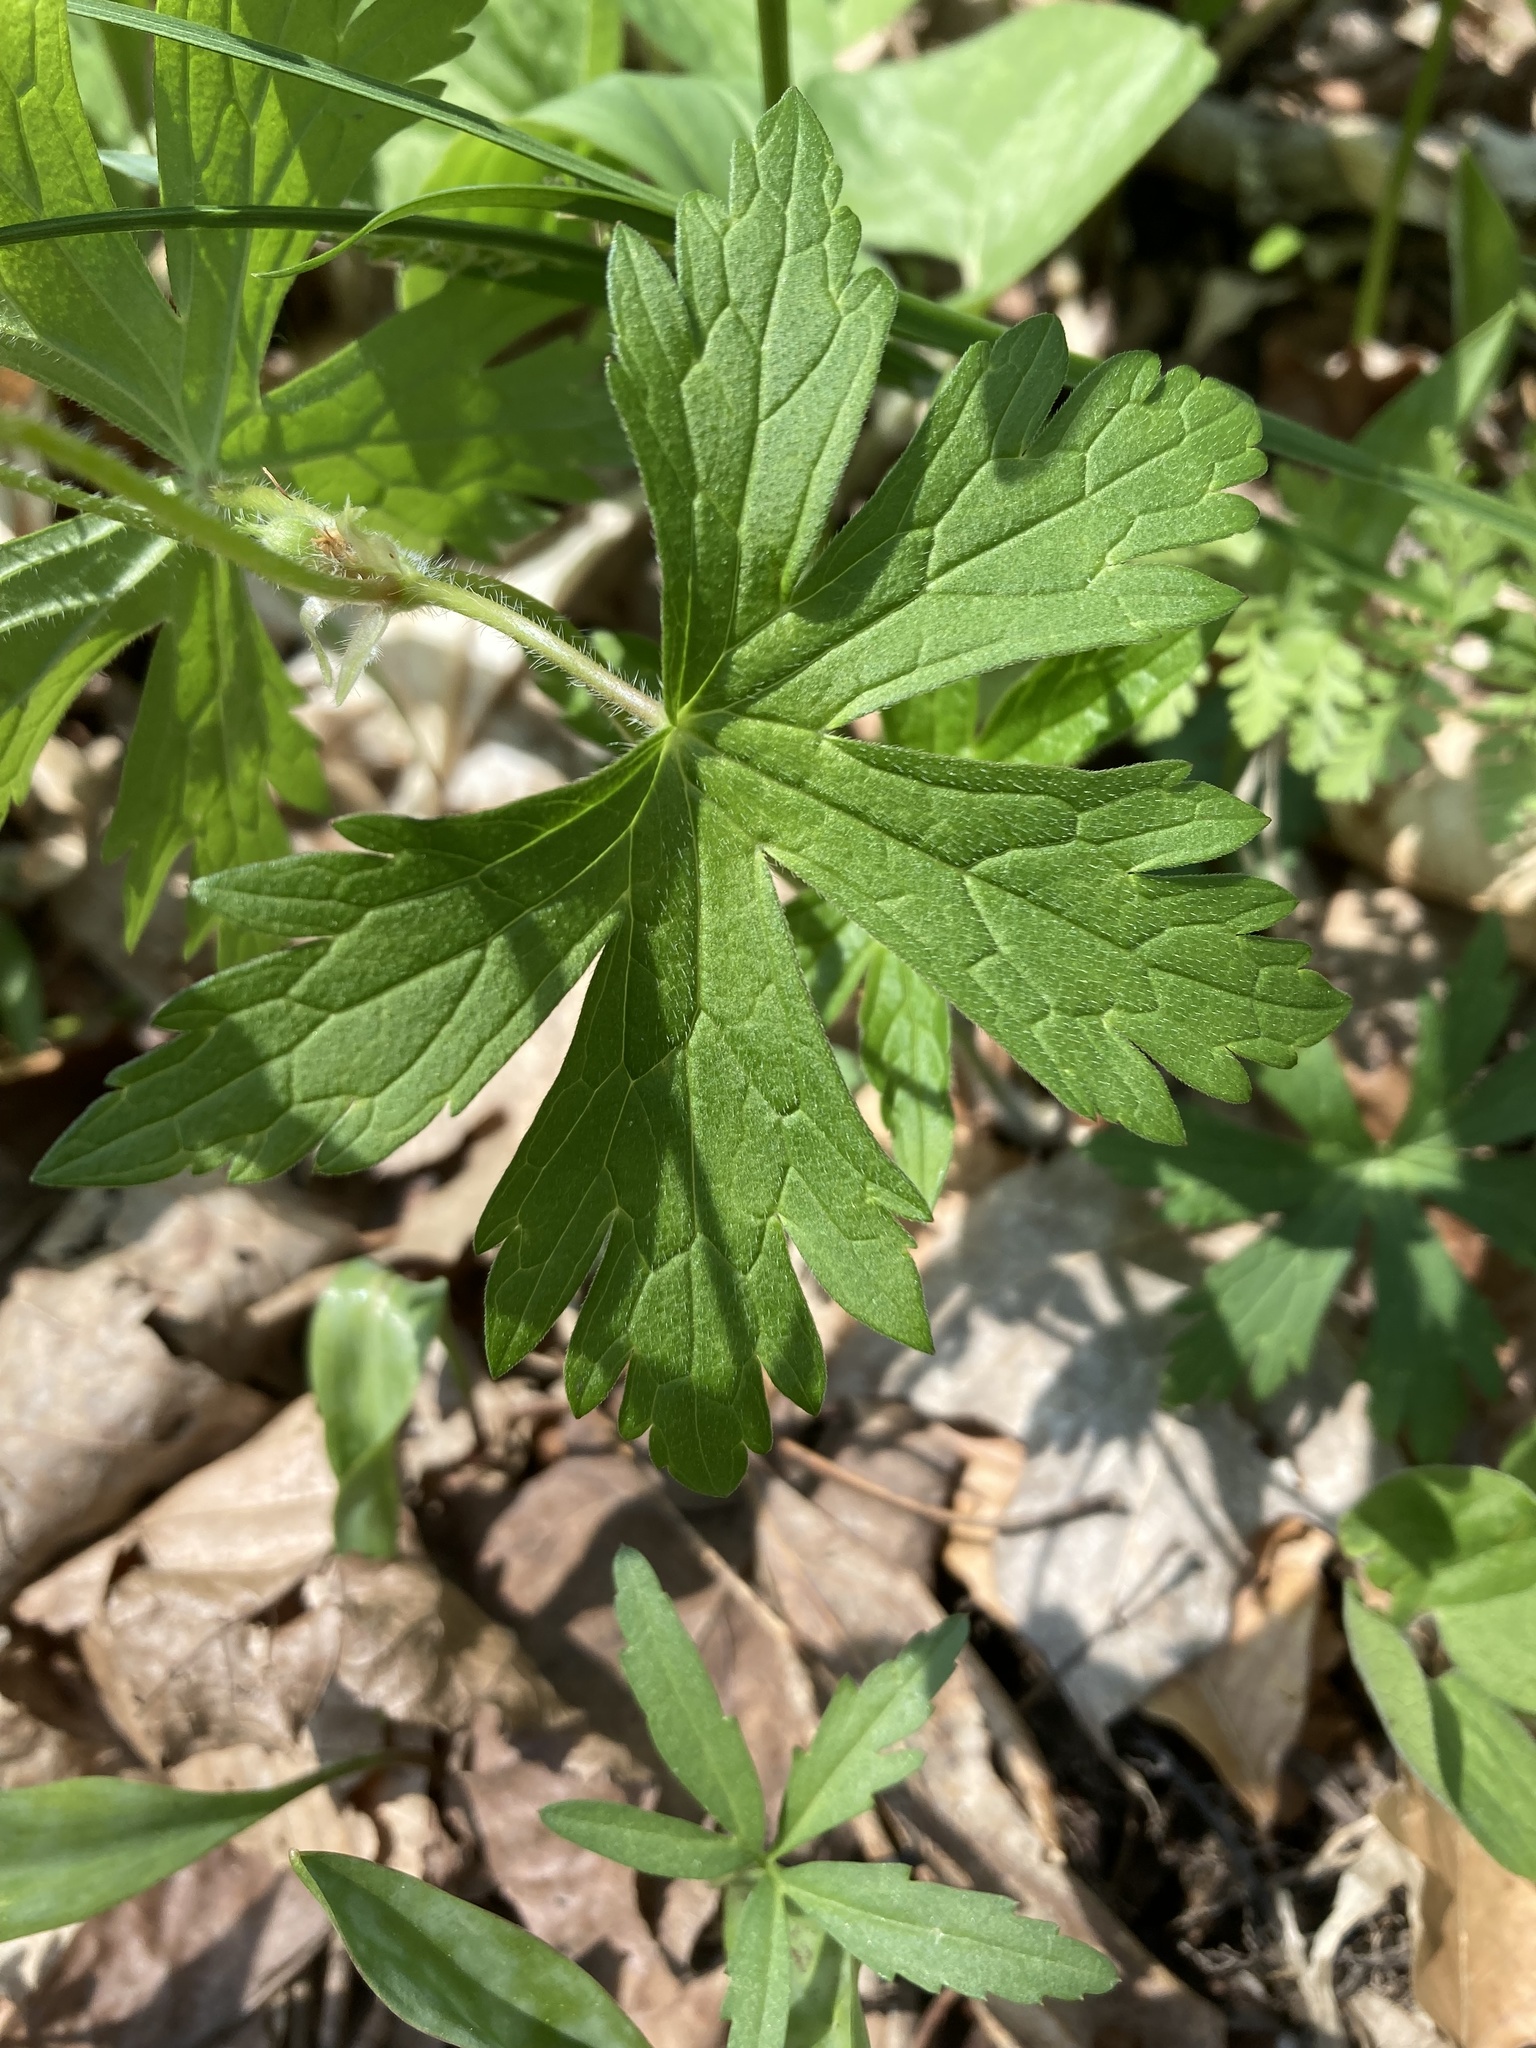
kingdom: Plantae
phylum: Tracheophyta
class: Magnoliopsida
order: Geraniales
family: Geraniaceae
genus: Geranium
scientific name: Geranium maculatum
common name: Spotted geranium
